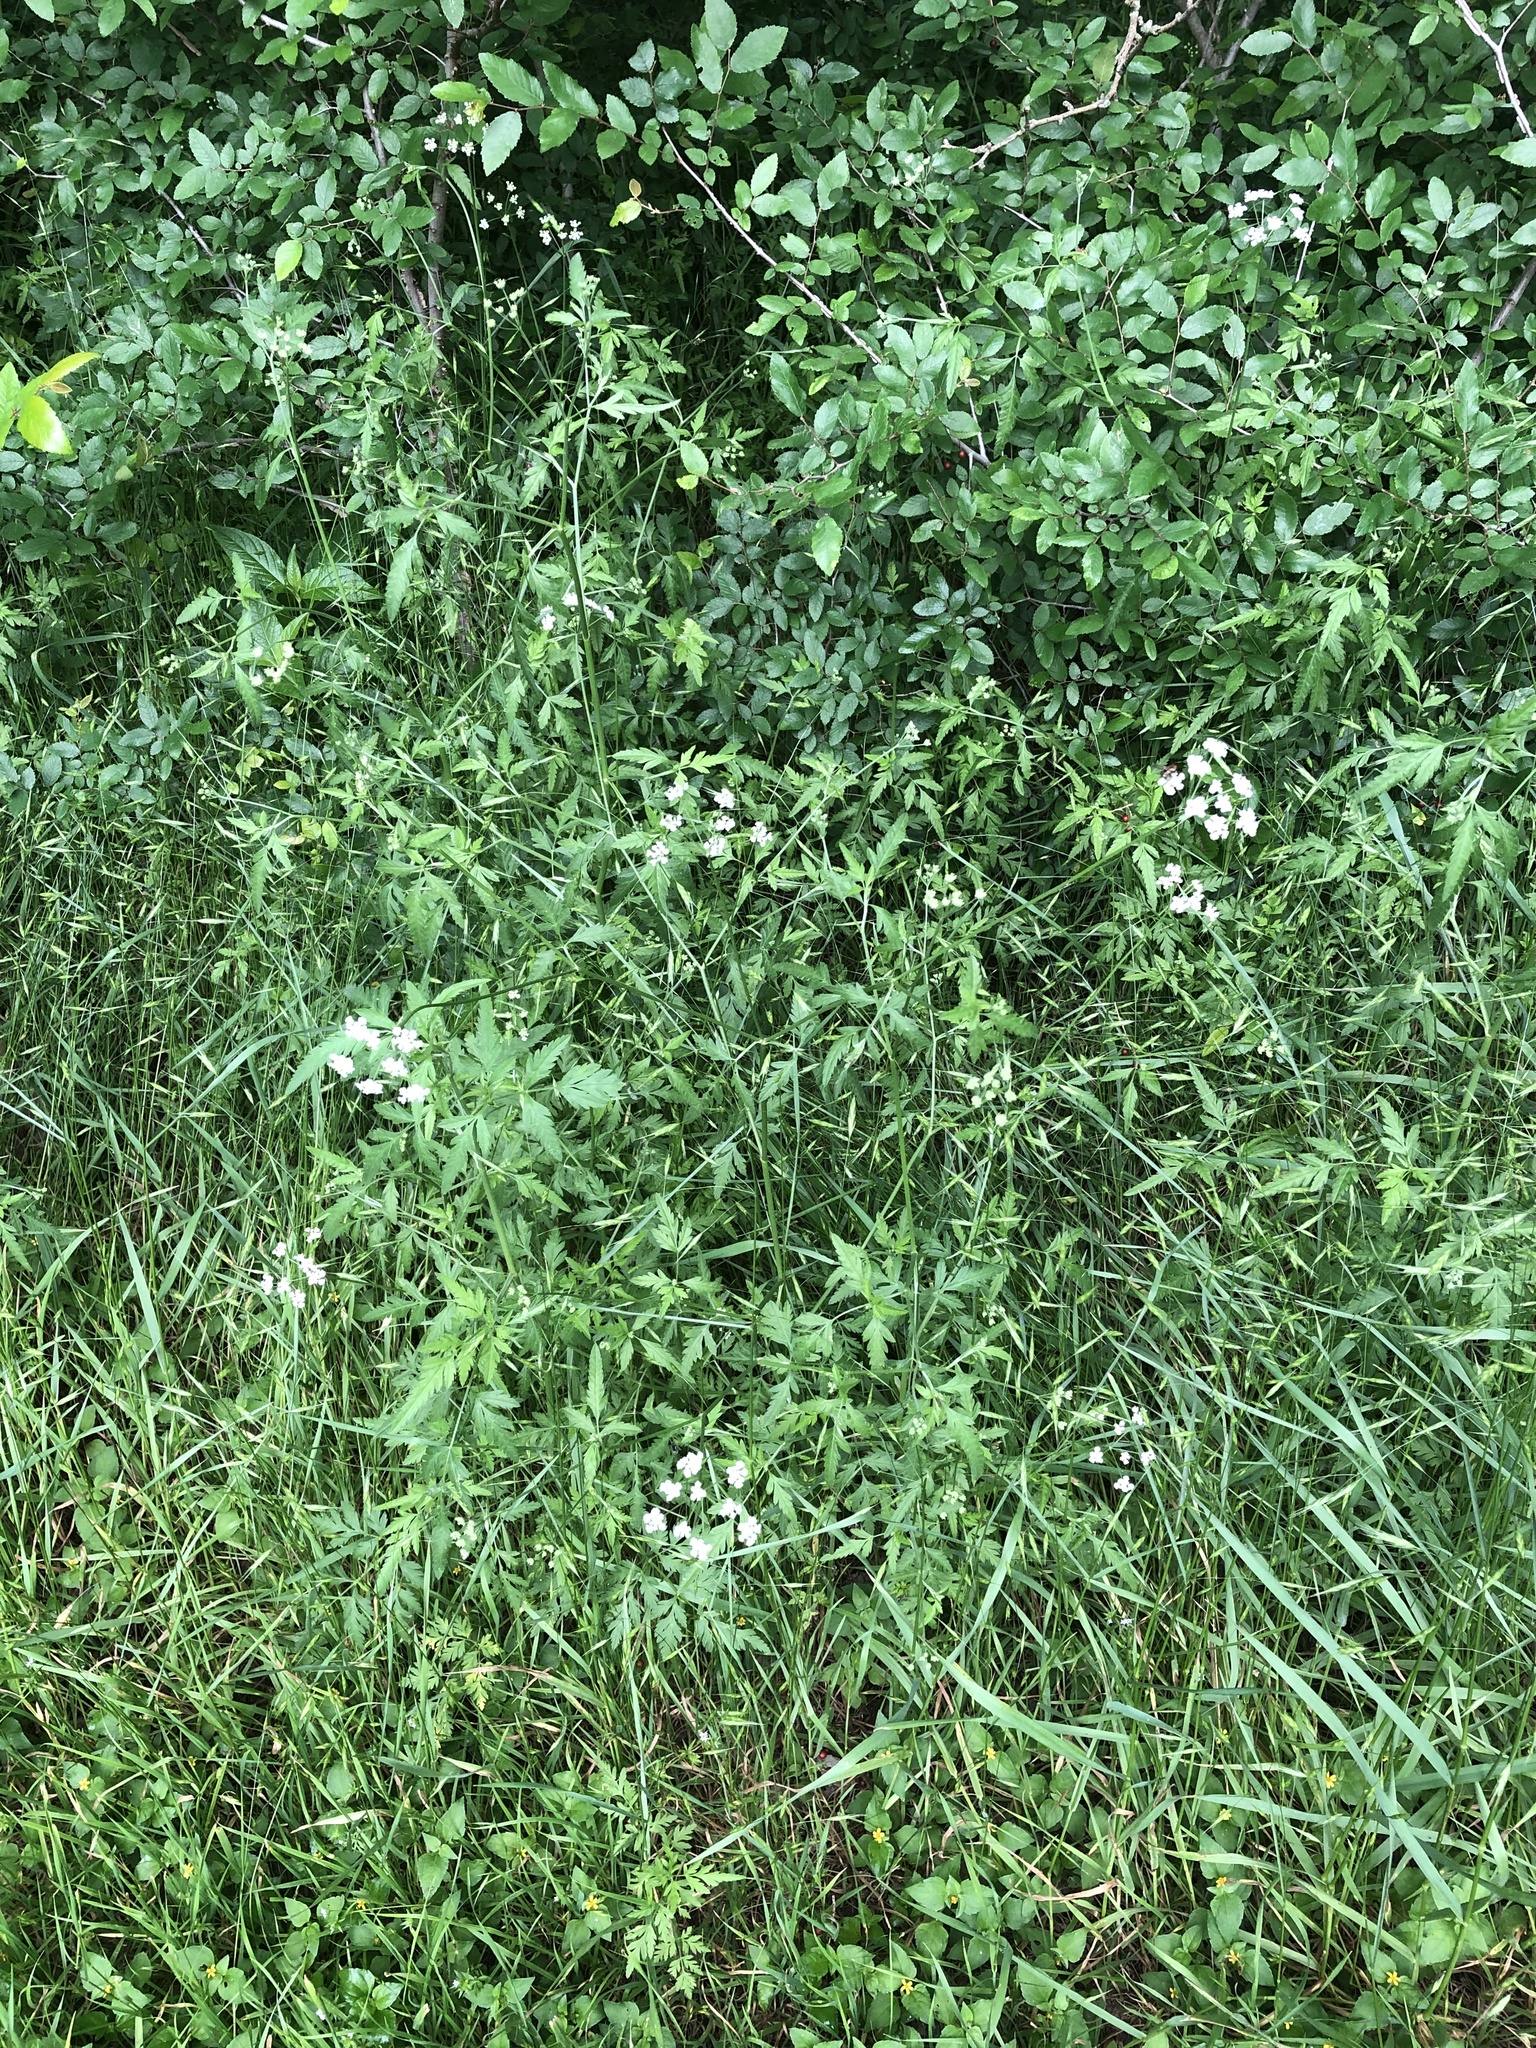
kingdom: Plantae
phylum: Tracheophyta
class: Magnoliopsida
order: Apiales
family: Apiaceae
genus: Torilis
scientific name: Torilis arvensis
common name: Spreading hedge-parsley
